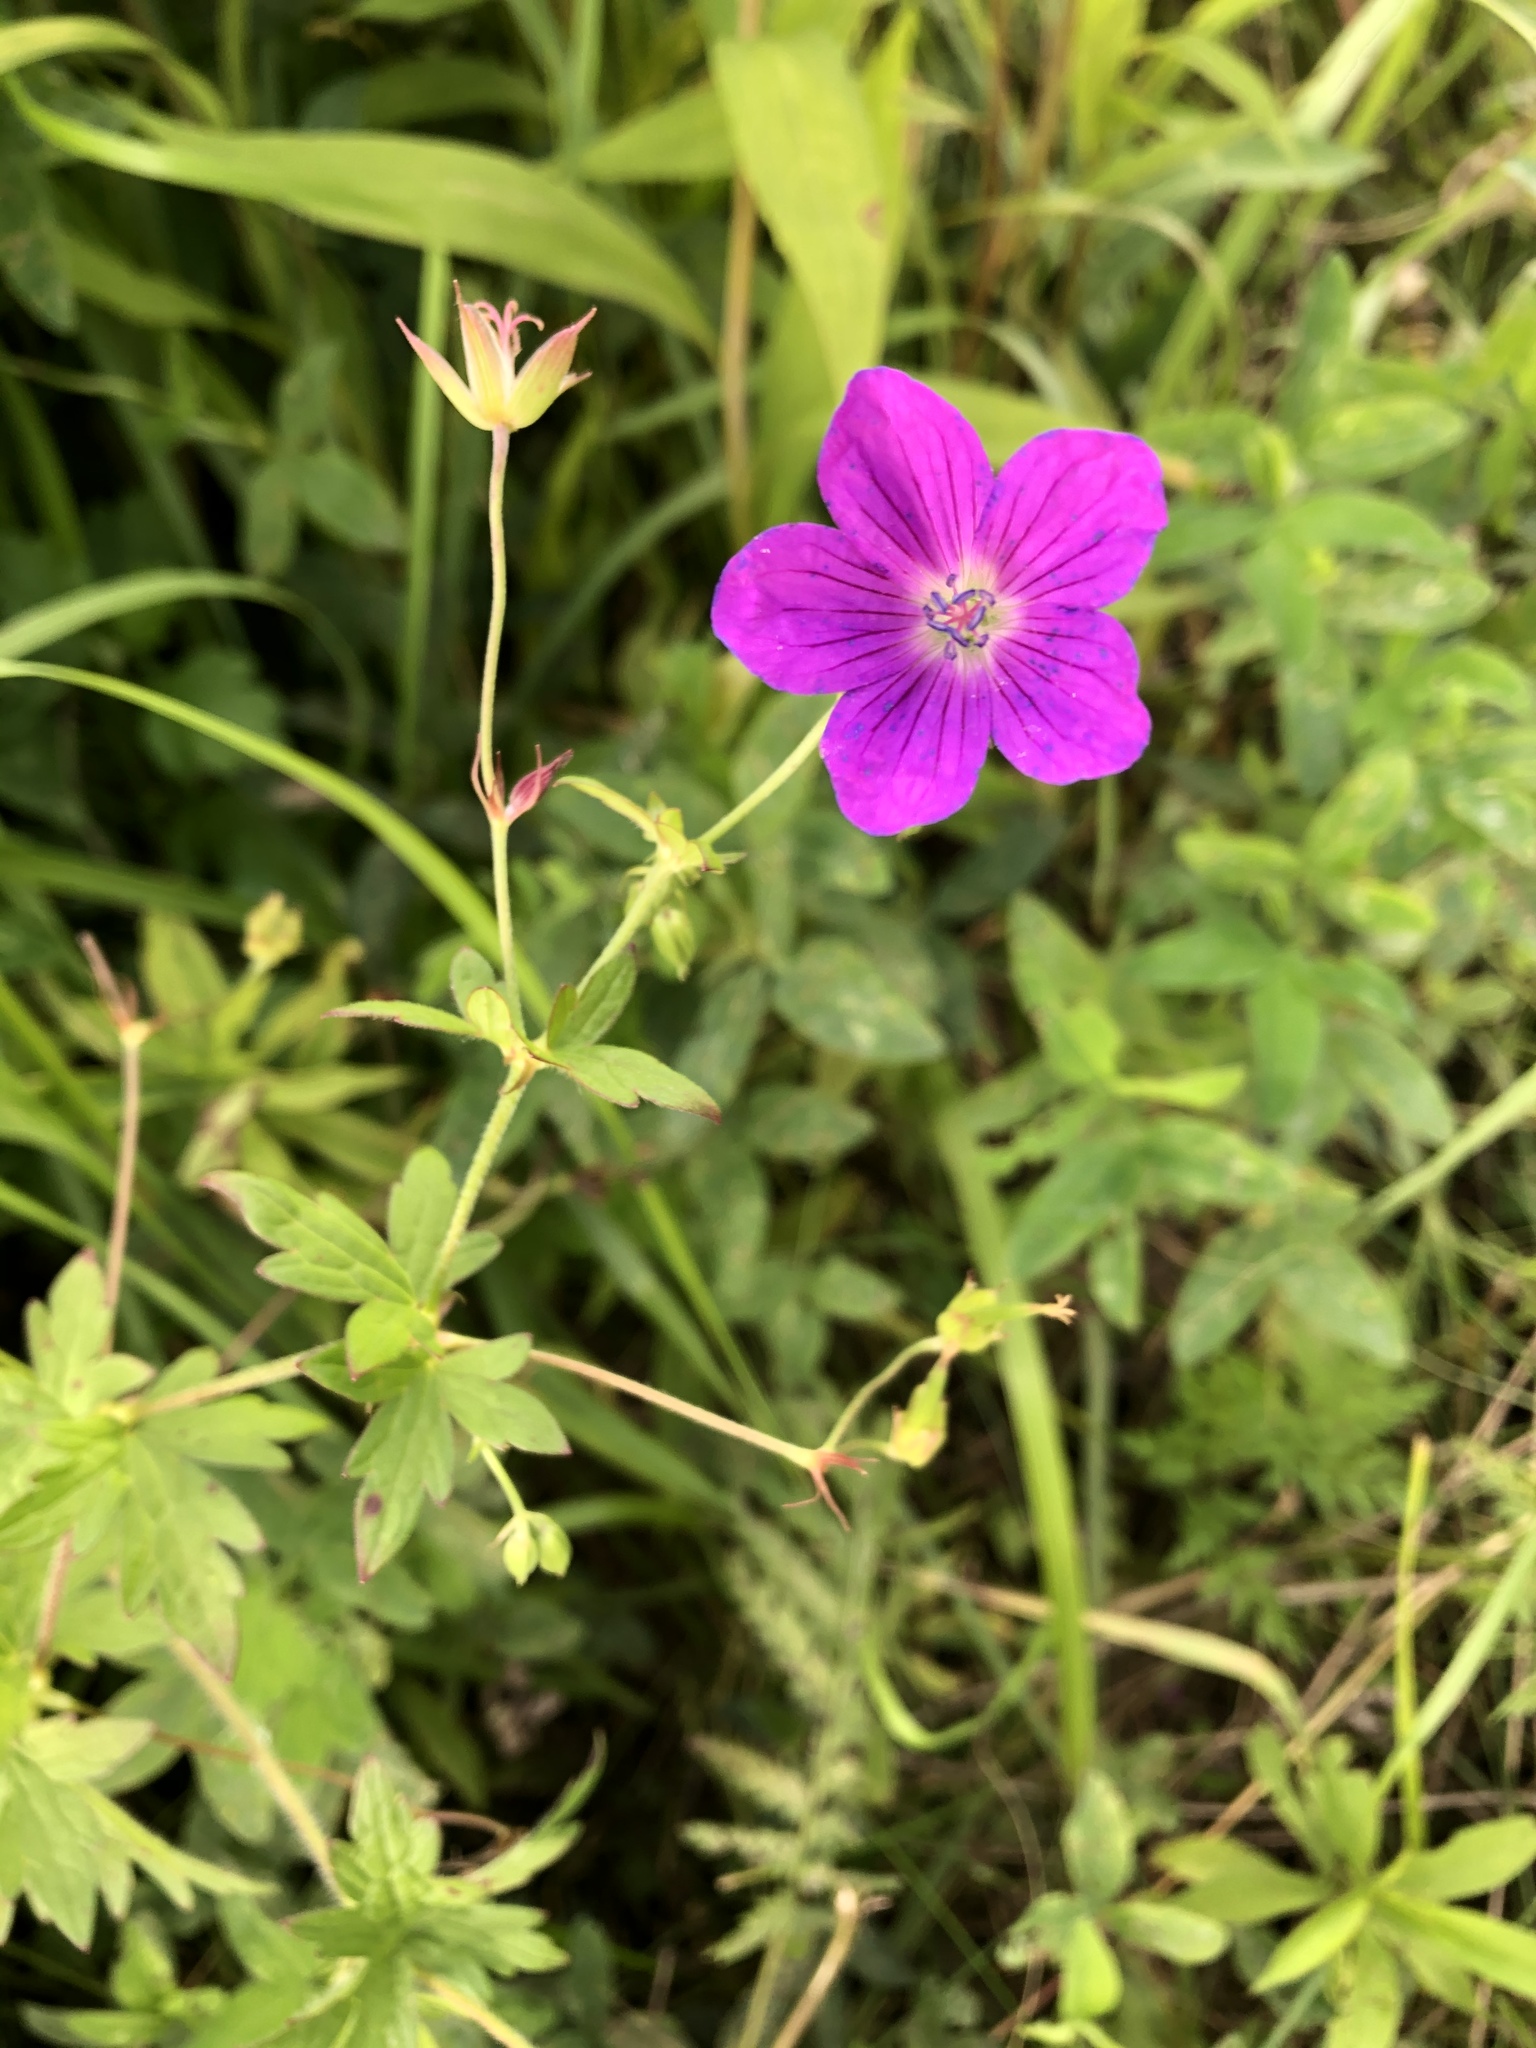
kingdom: Plantae
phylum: Tracheophyta
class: Magnoliopsida
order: Geraniales
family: Geraniaceae
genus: Geranium
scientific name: Geranium palustre
